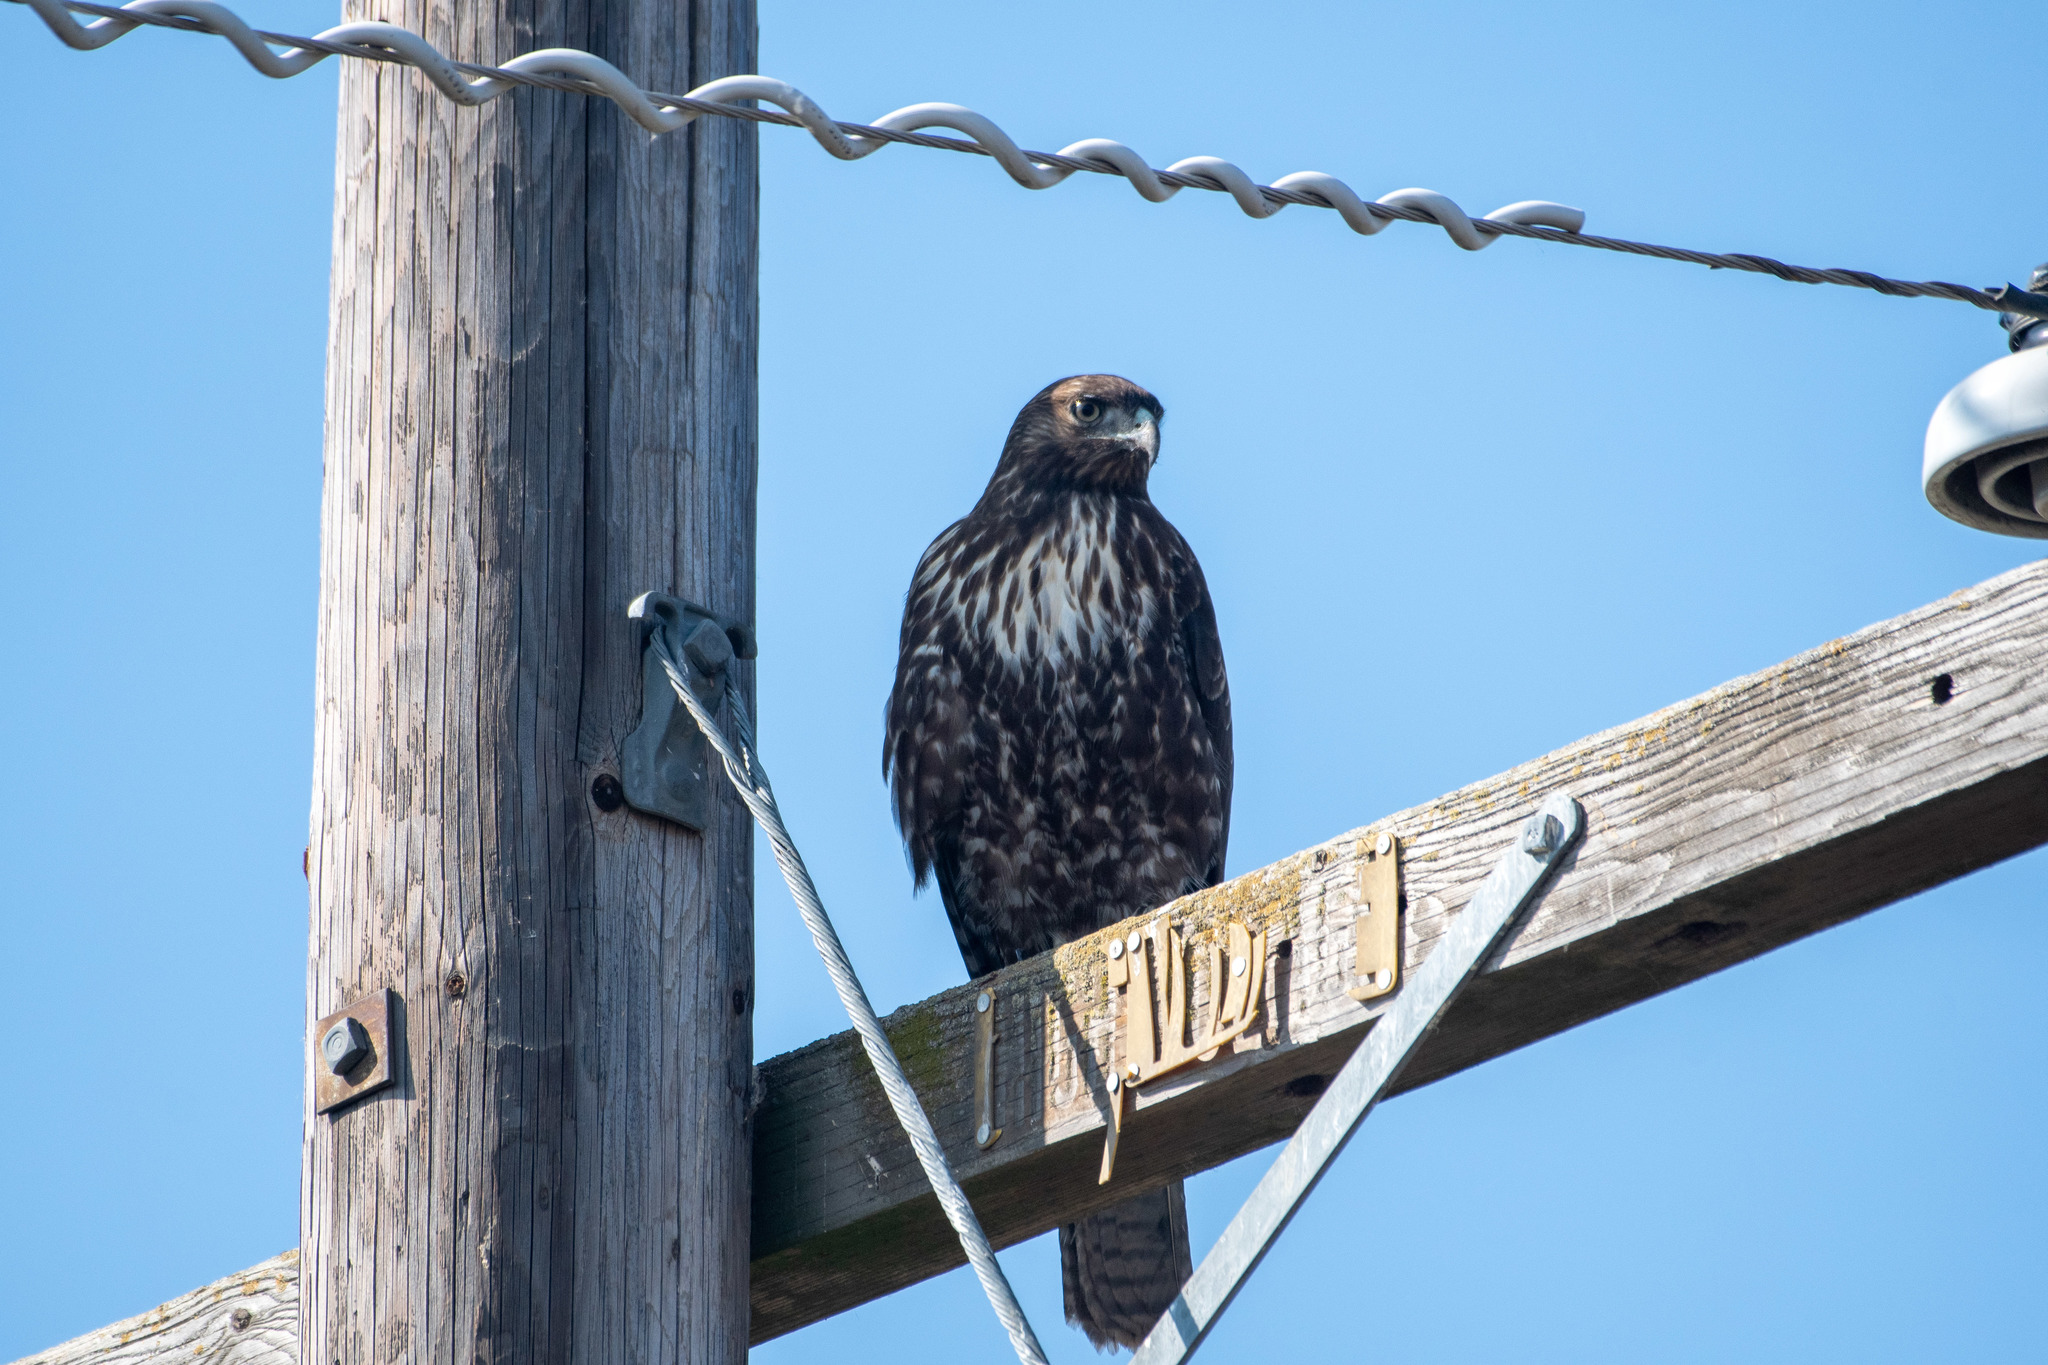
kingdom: Animalia
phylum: Chordata
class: Aves
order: Accipitriformes
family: Accipitridae
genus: Buteo
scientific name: Buteo jamaicensis
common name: Red-tailed hawk
